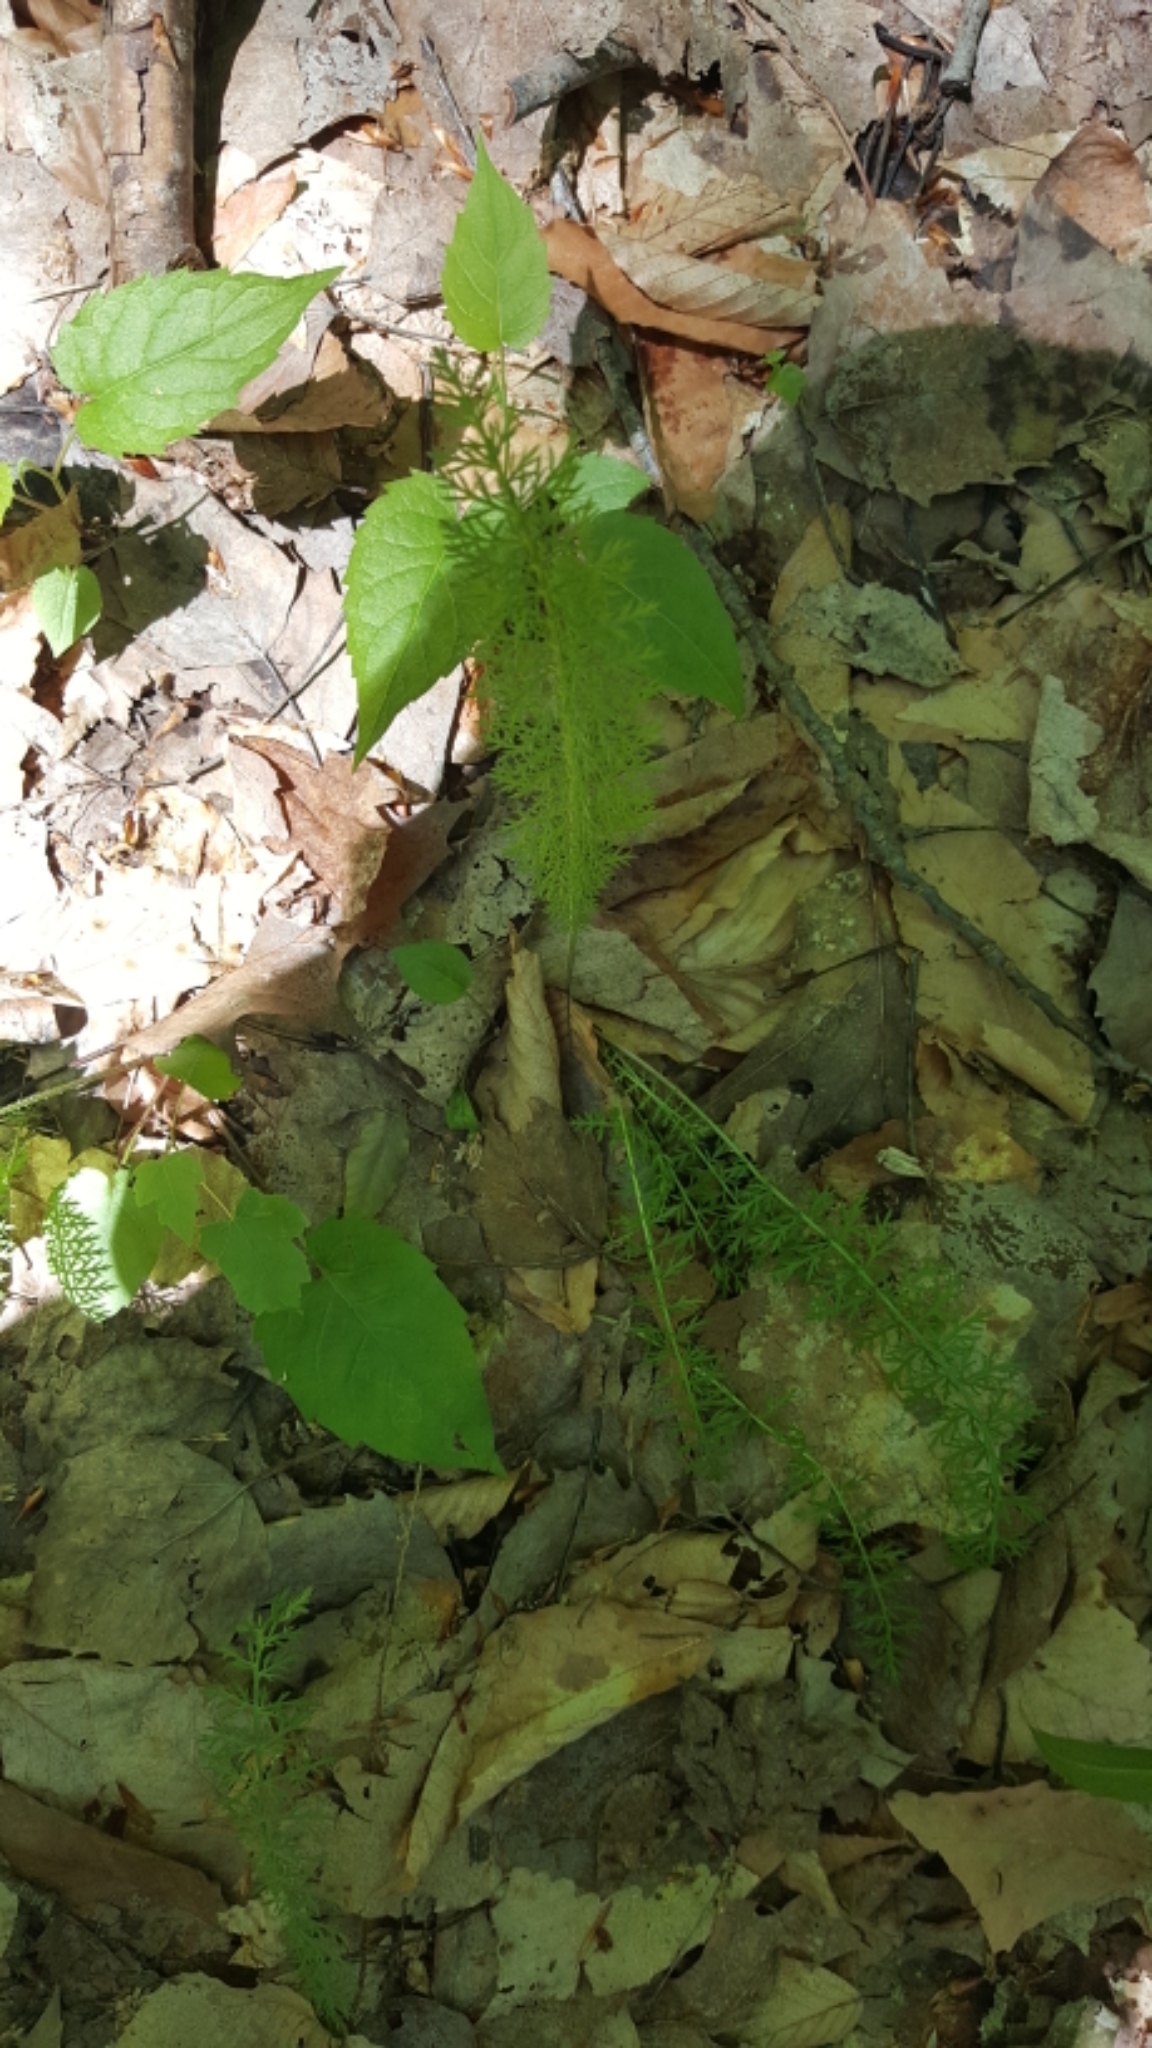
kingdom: Plantae
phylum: Tracheophyta
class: Magnoliopsida
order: Asterales
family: Asteraceae
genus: Achillea
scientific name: Achillea millefolium
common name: Yarrow
